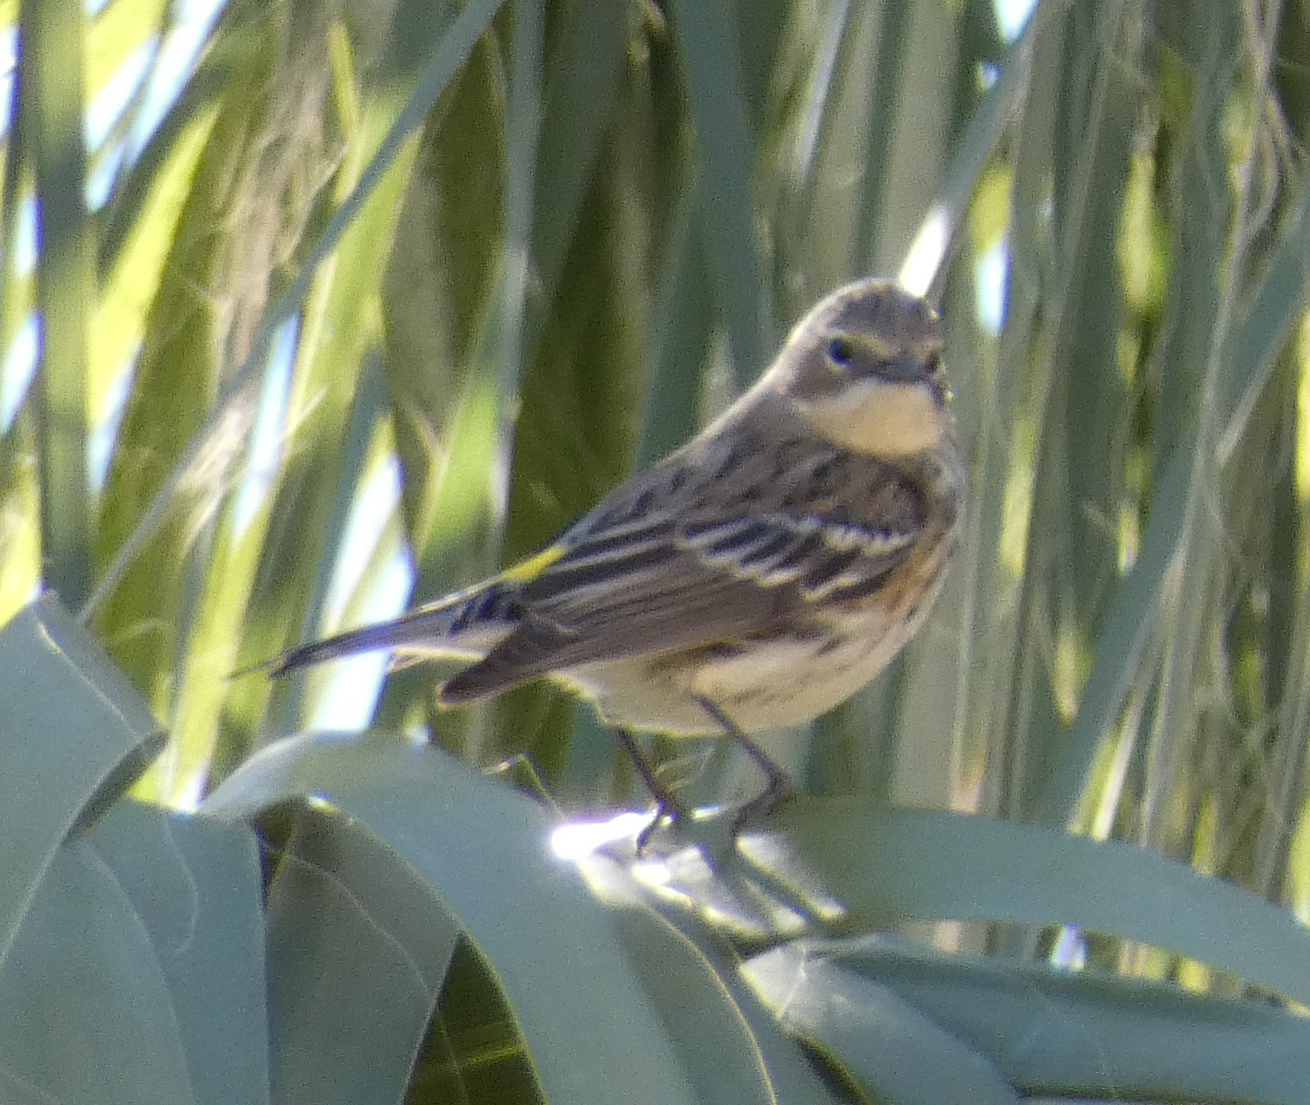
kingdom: Animalia
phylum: Chordata
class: Aves
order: Passeriformes
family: Parulidae
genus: Setophaga
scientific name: Setophaga coronata
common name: Myrtle warbler
